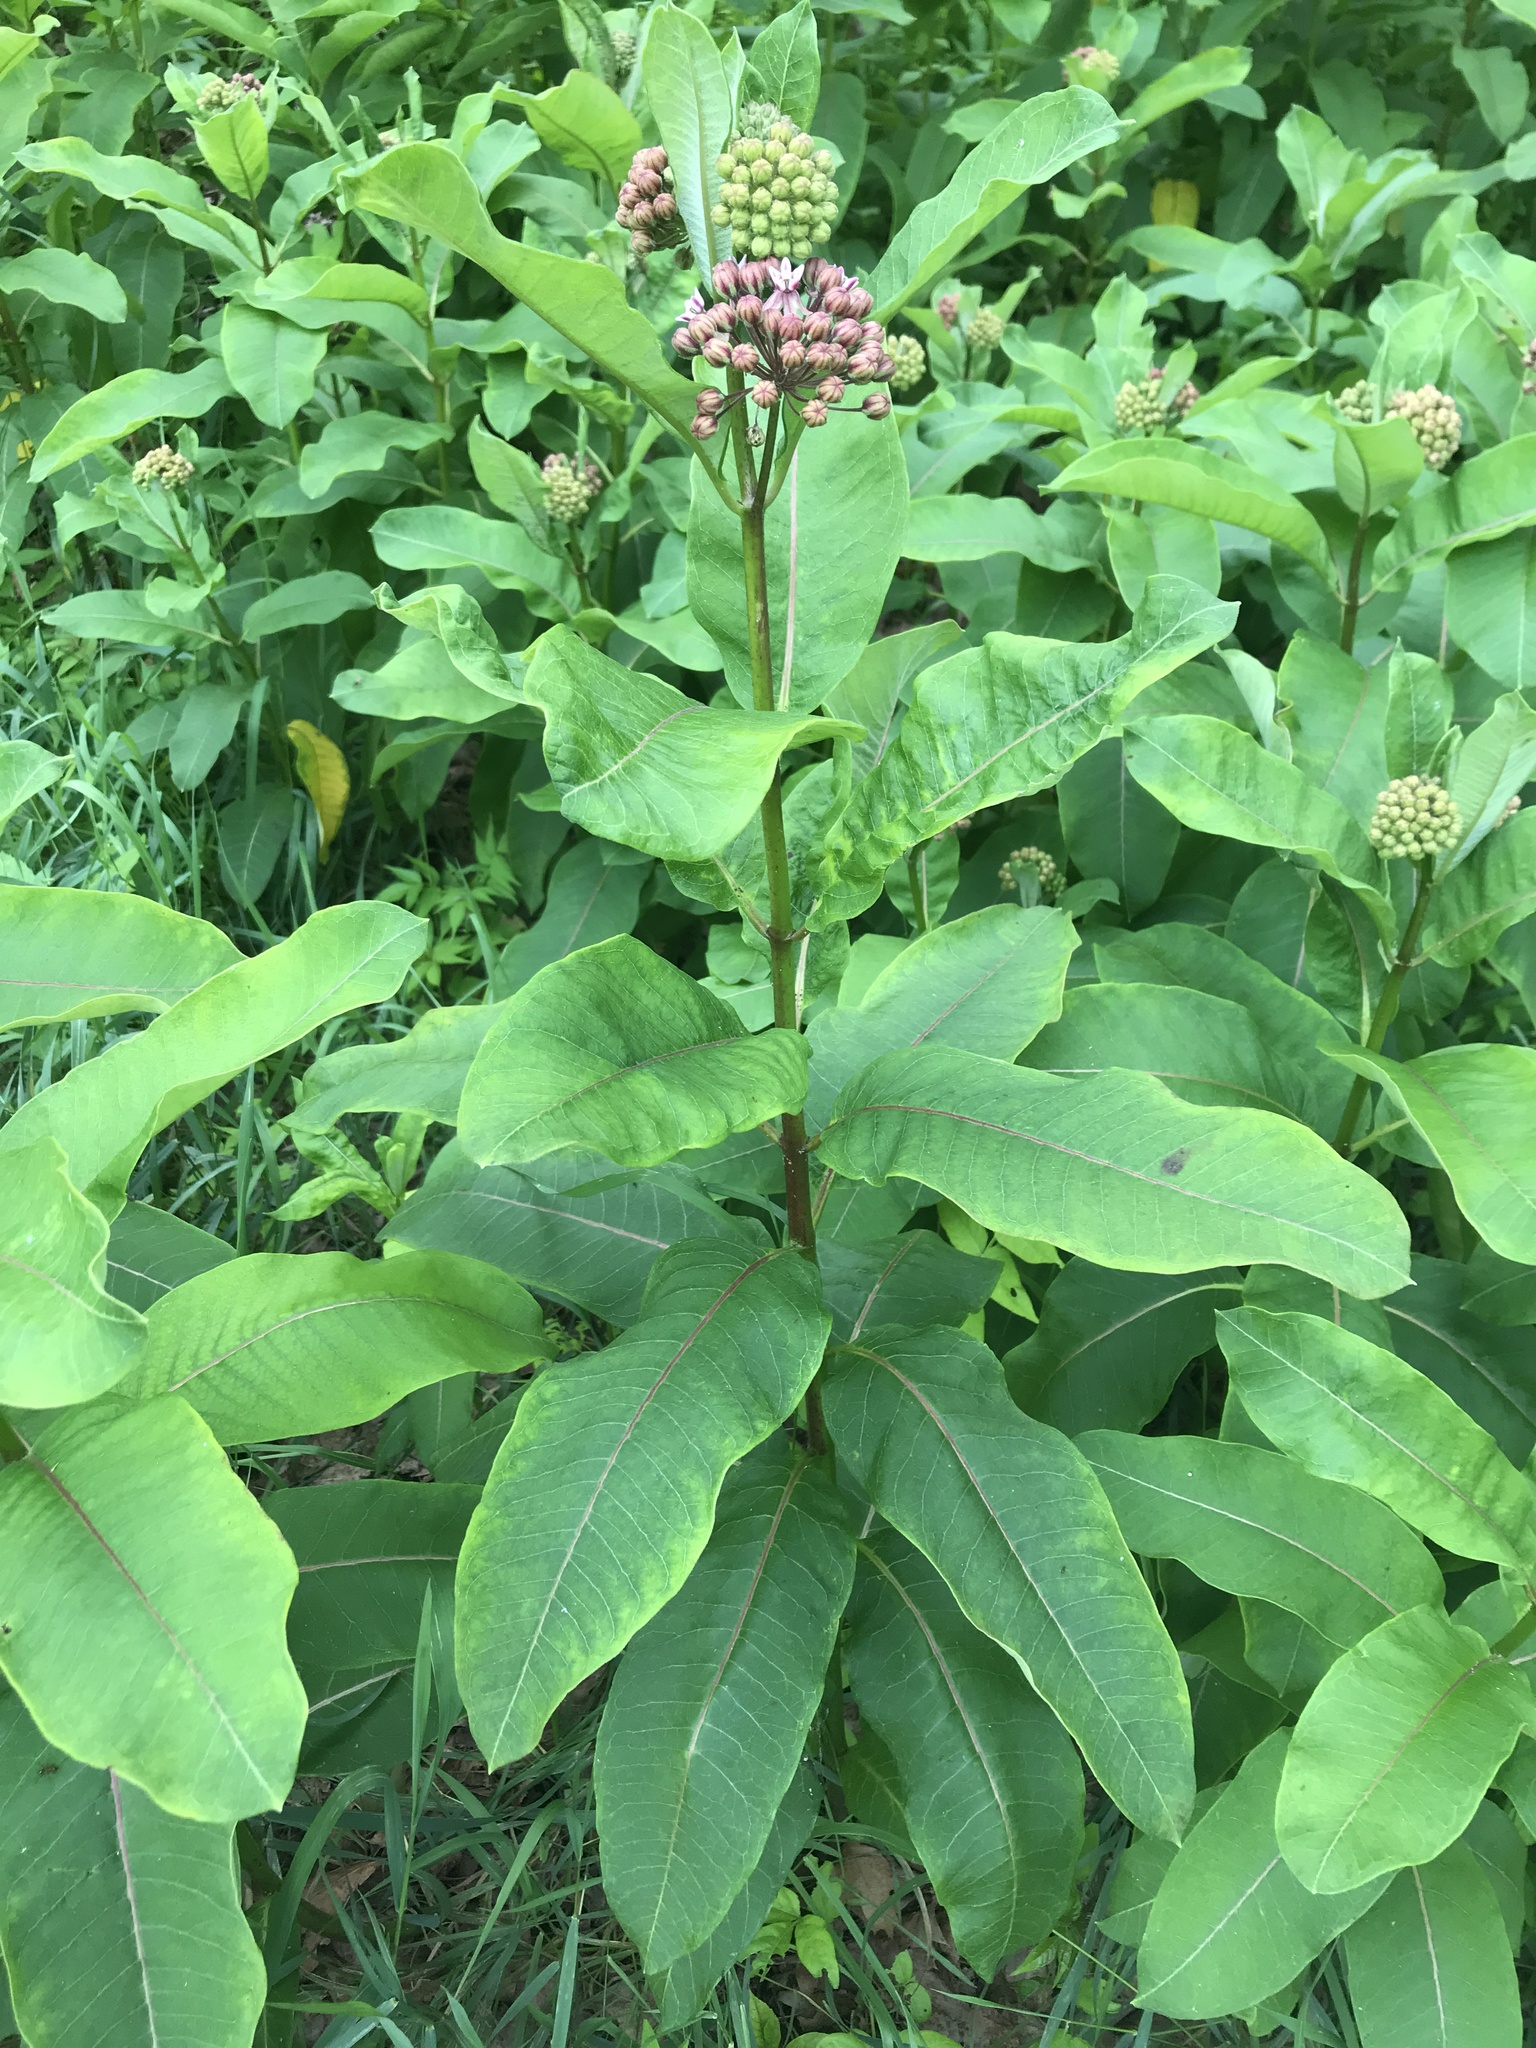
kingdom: Plantae
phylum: Tracheophyta
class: Magnoliopsida
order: Gentianales
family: Apocynaceae
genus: Asclepias
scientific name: Asclepias syriaca
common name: Common milkweed
